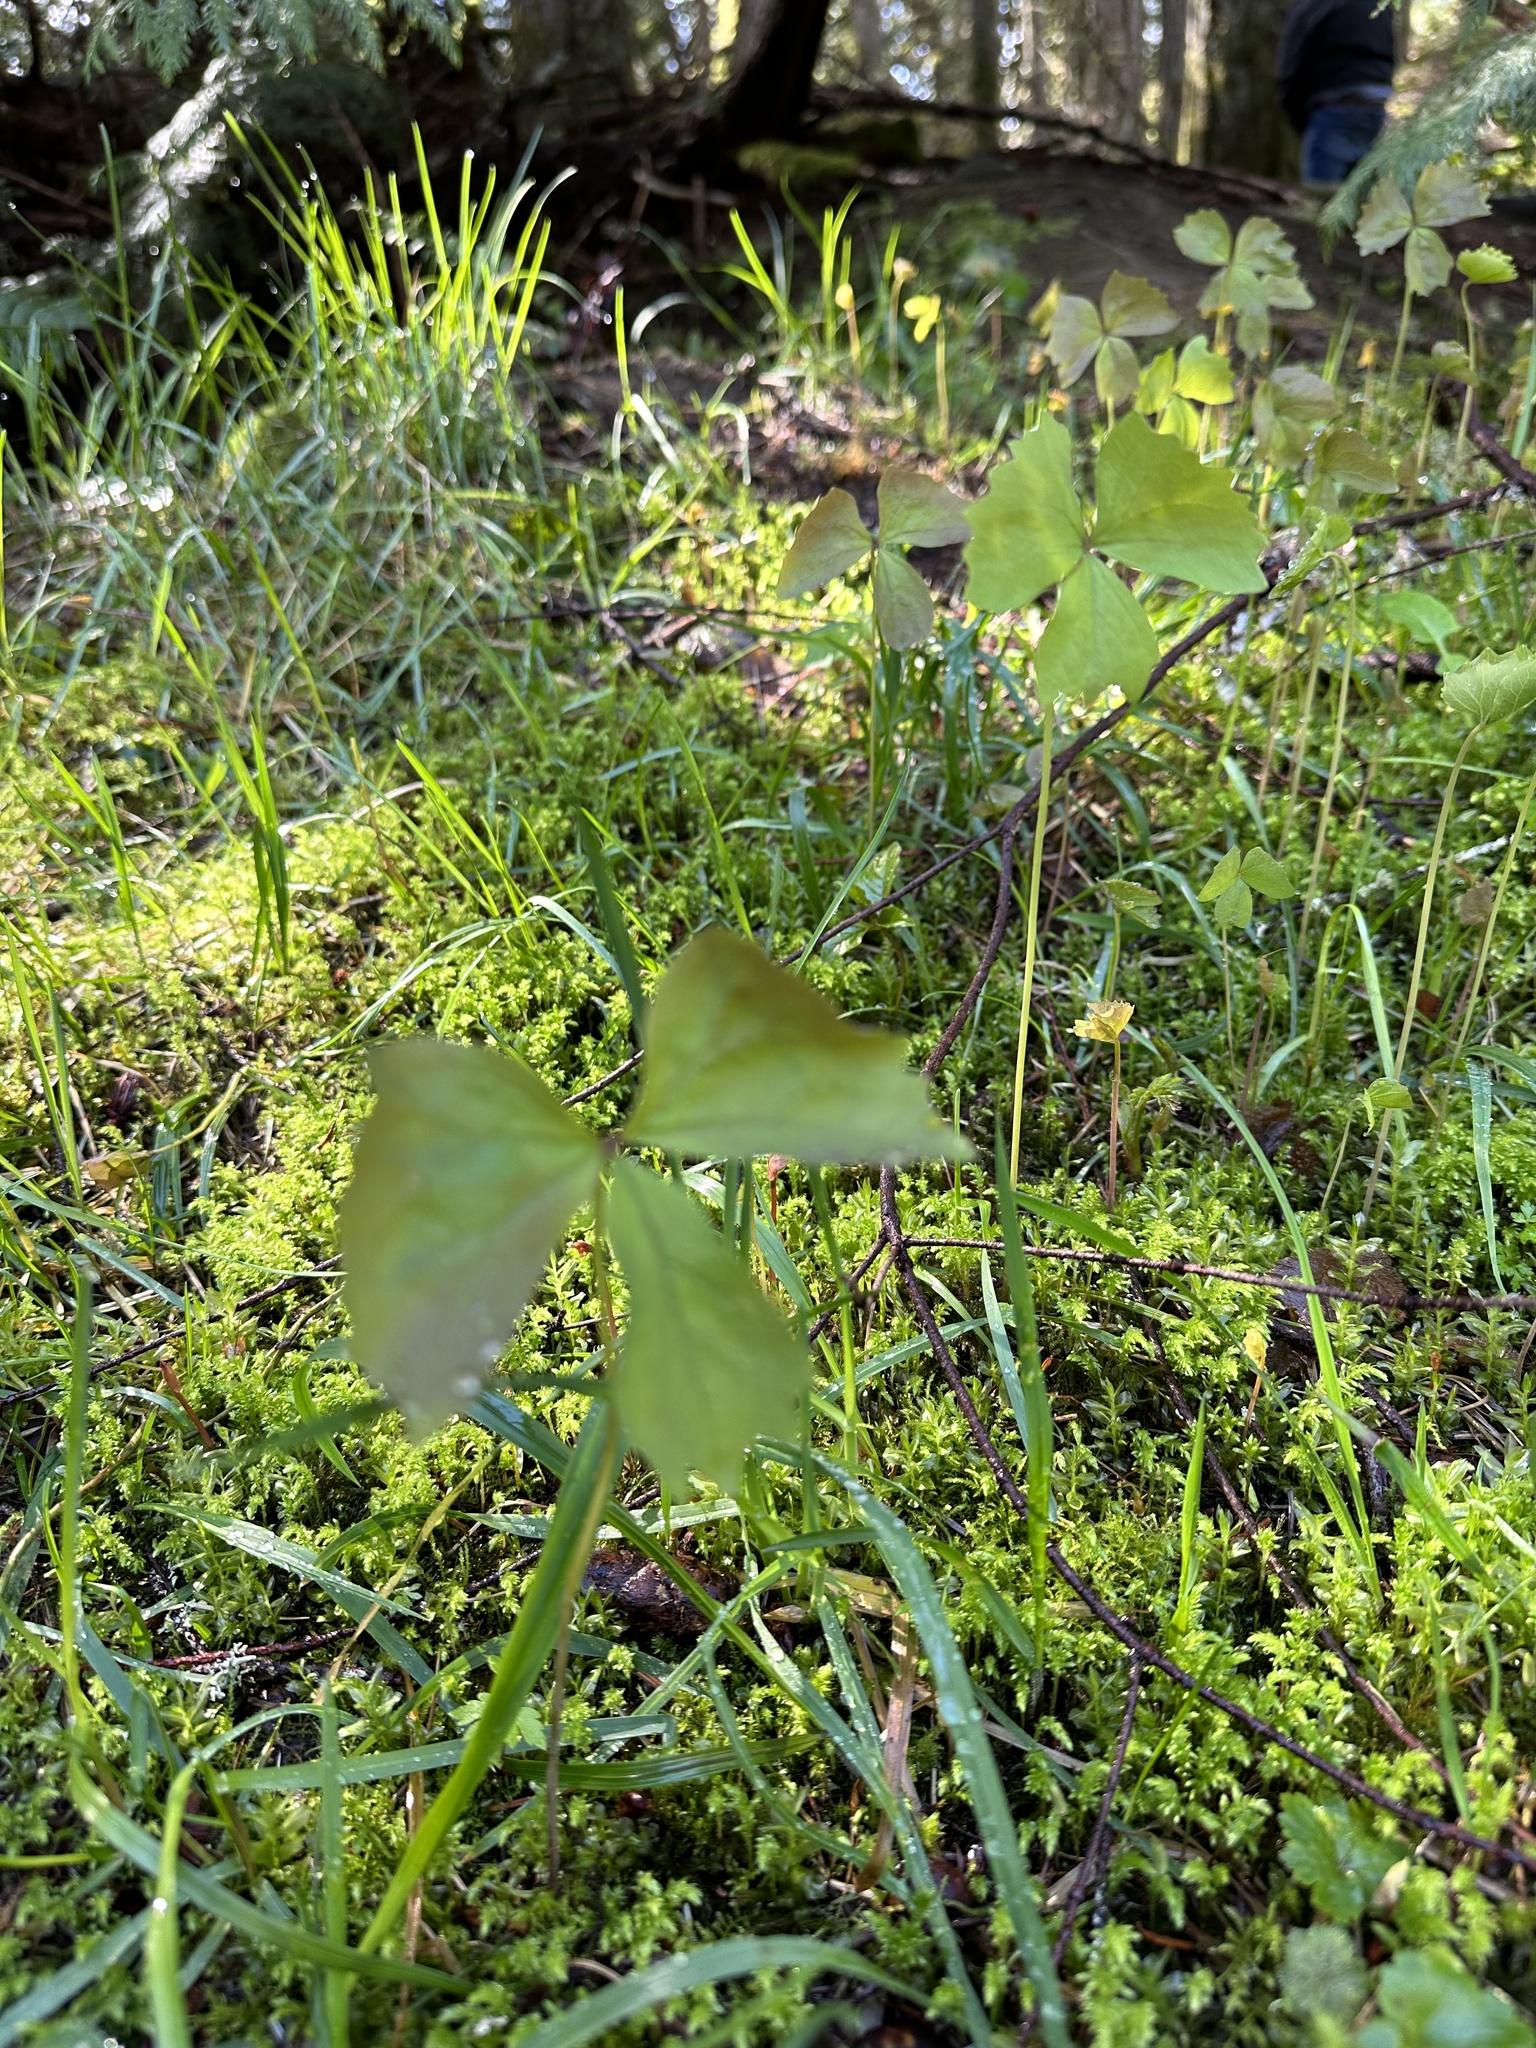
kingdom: Plantae
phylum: Tracheophyta
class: Magnoliopsida
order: Ranunculales
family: Berberidaceae
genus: Achlys
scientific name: Achlys triphylla
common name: Vanilla-leaf
